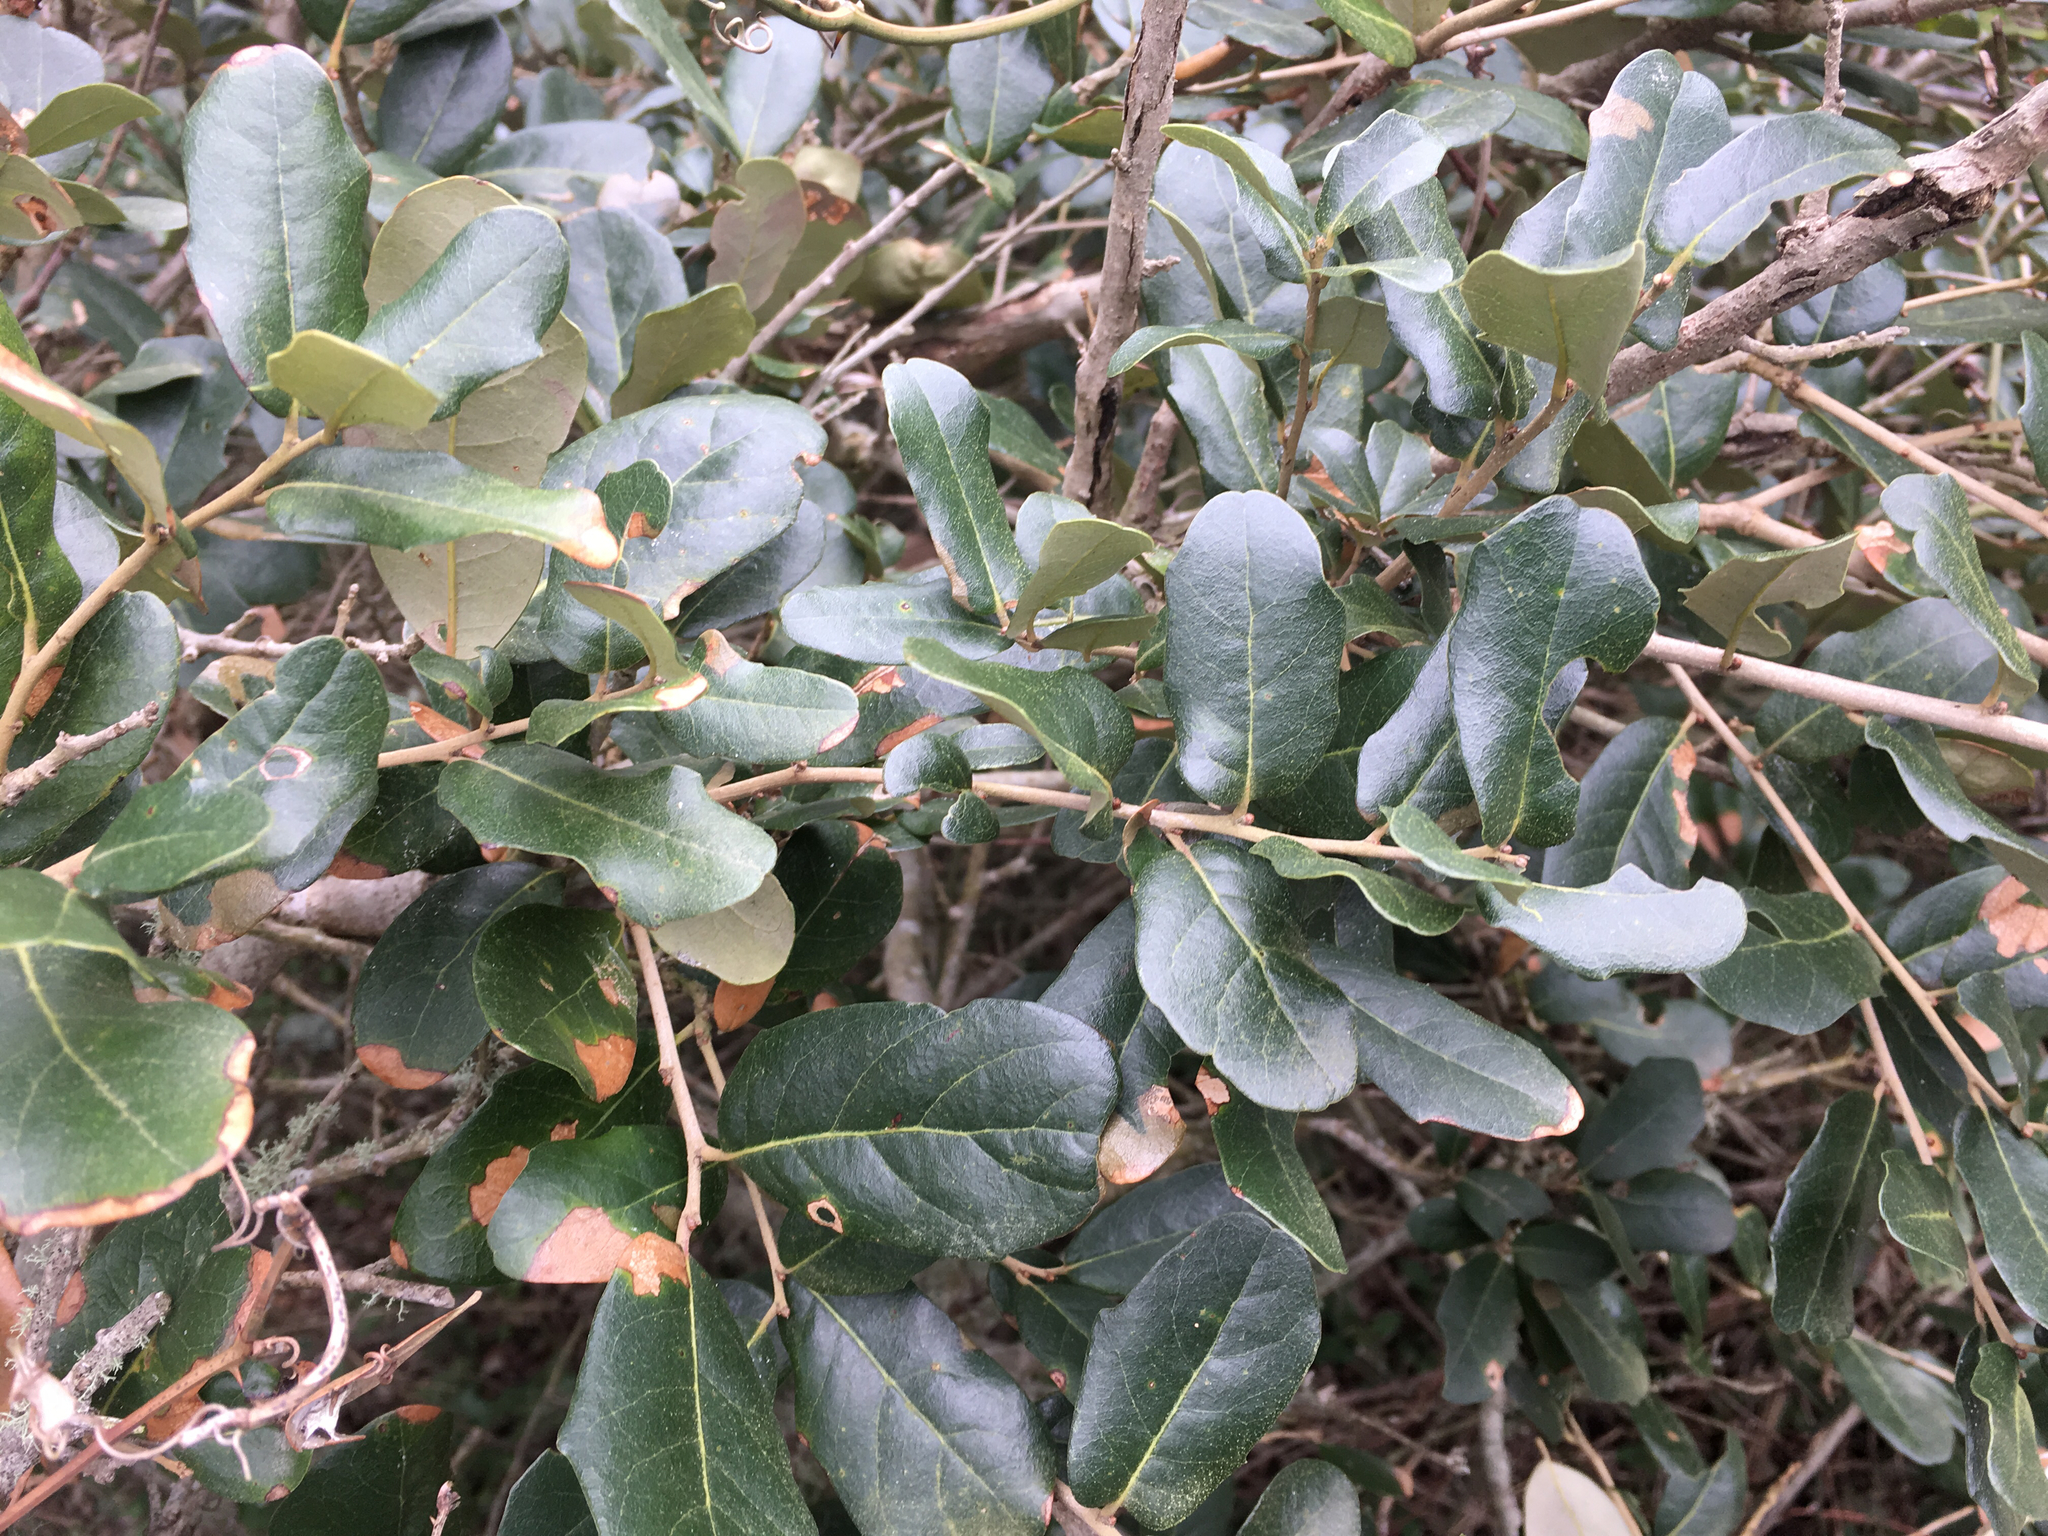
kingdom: Plantae
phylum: Tracheophyta
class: Magnoliopsida
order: Fagales
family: Fagaceae
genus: Quercus
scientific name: Quercus virginiana
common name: Southern live oak
